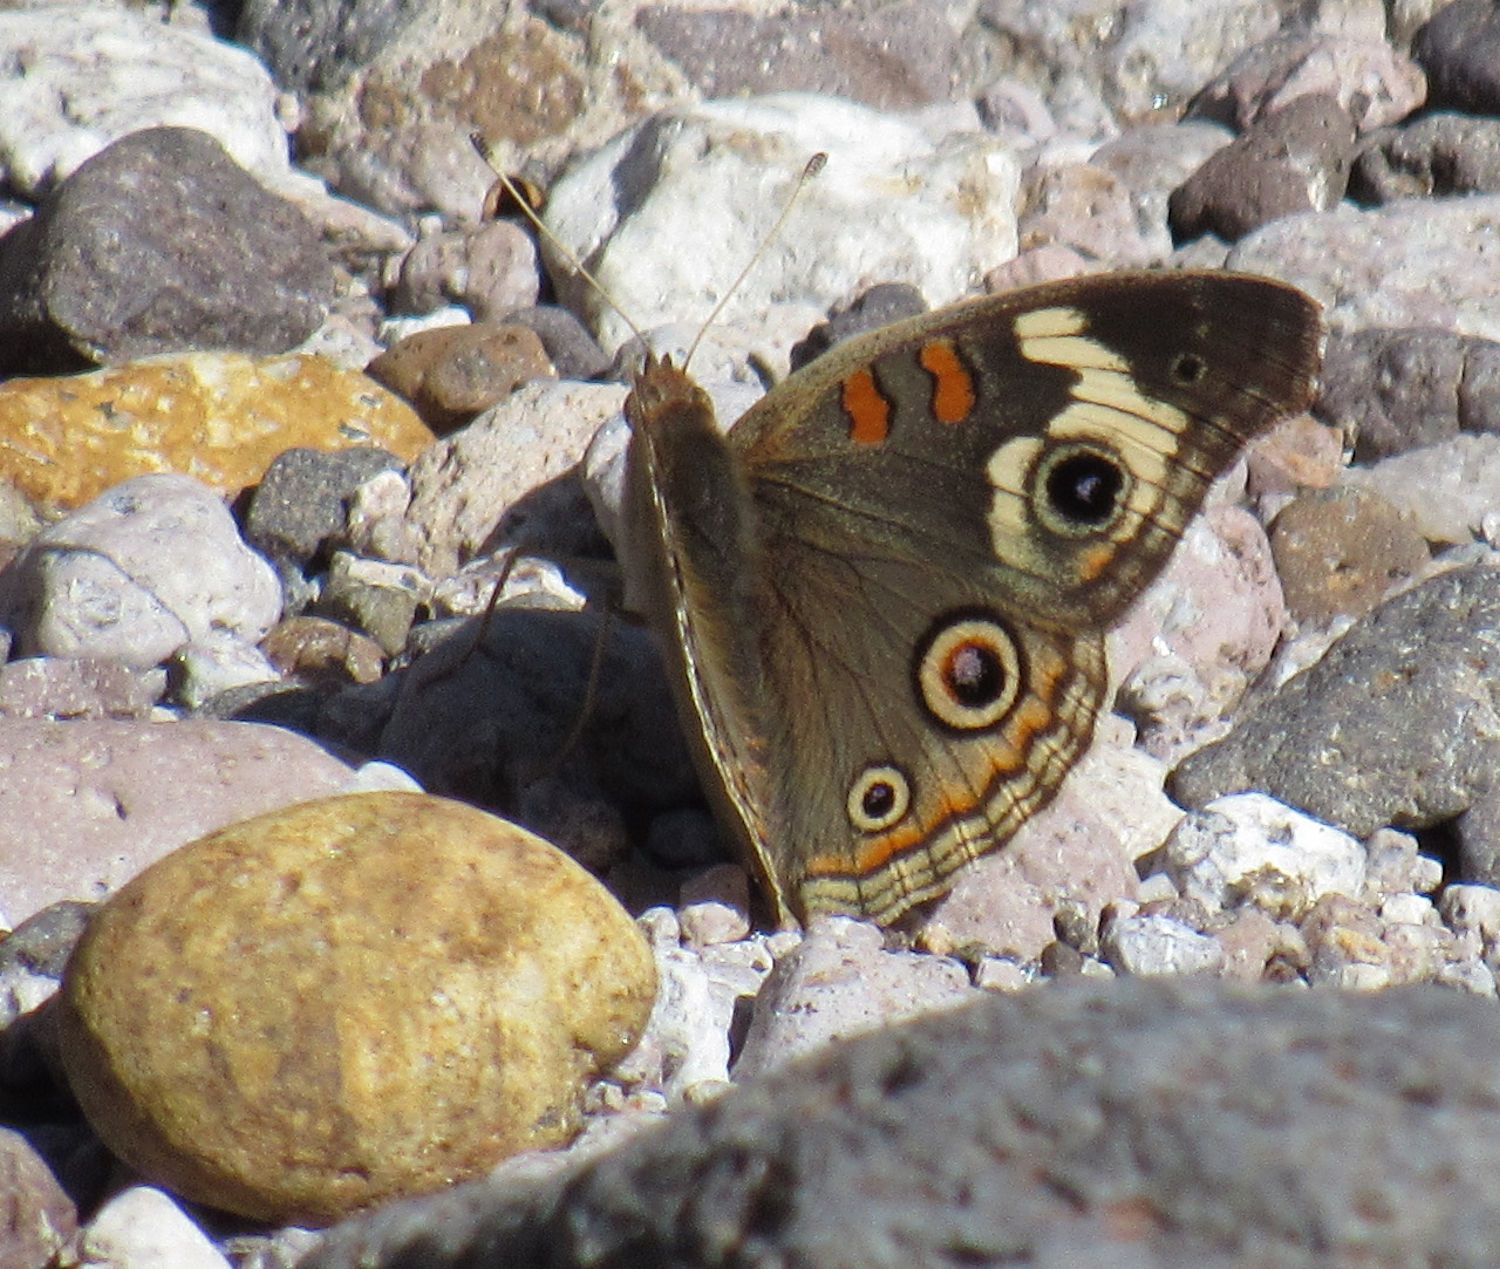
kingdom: Animalia
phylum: Arthropoda
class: Insecta
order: Lepidoptera
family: Nymphalidae
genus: Junonia
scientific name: Junonia grisea
